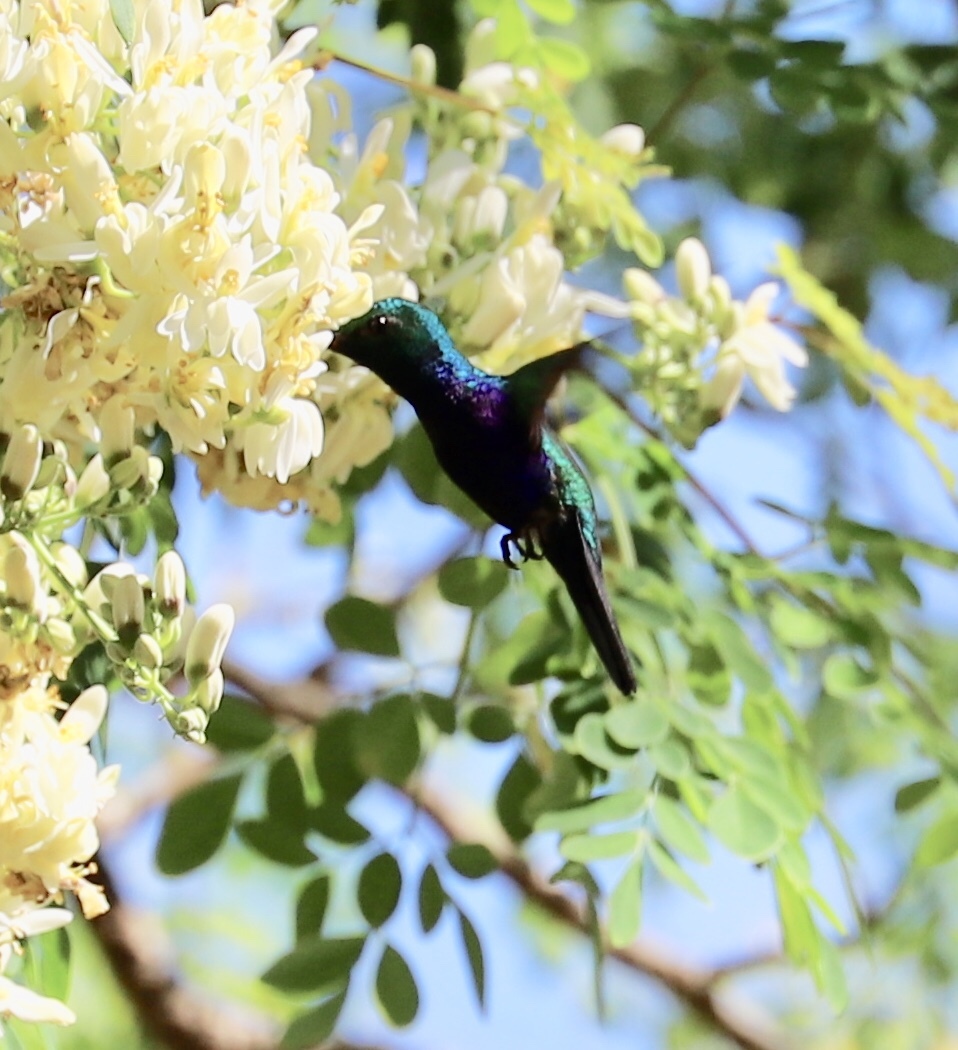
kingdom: Animalia
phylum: Chordata
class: Aves
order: Apodiformes
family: Trochilidae
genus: Chlorestes
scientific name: Chlorestes julie
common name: Violet-bellied hummingbird
